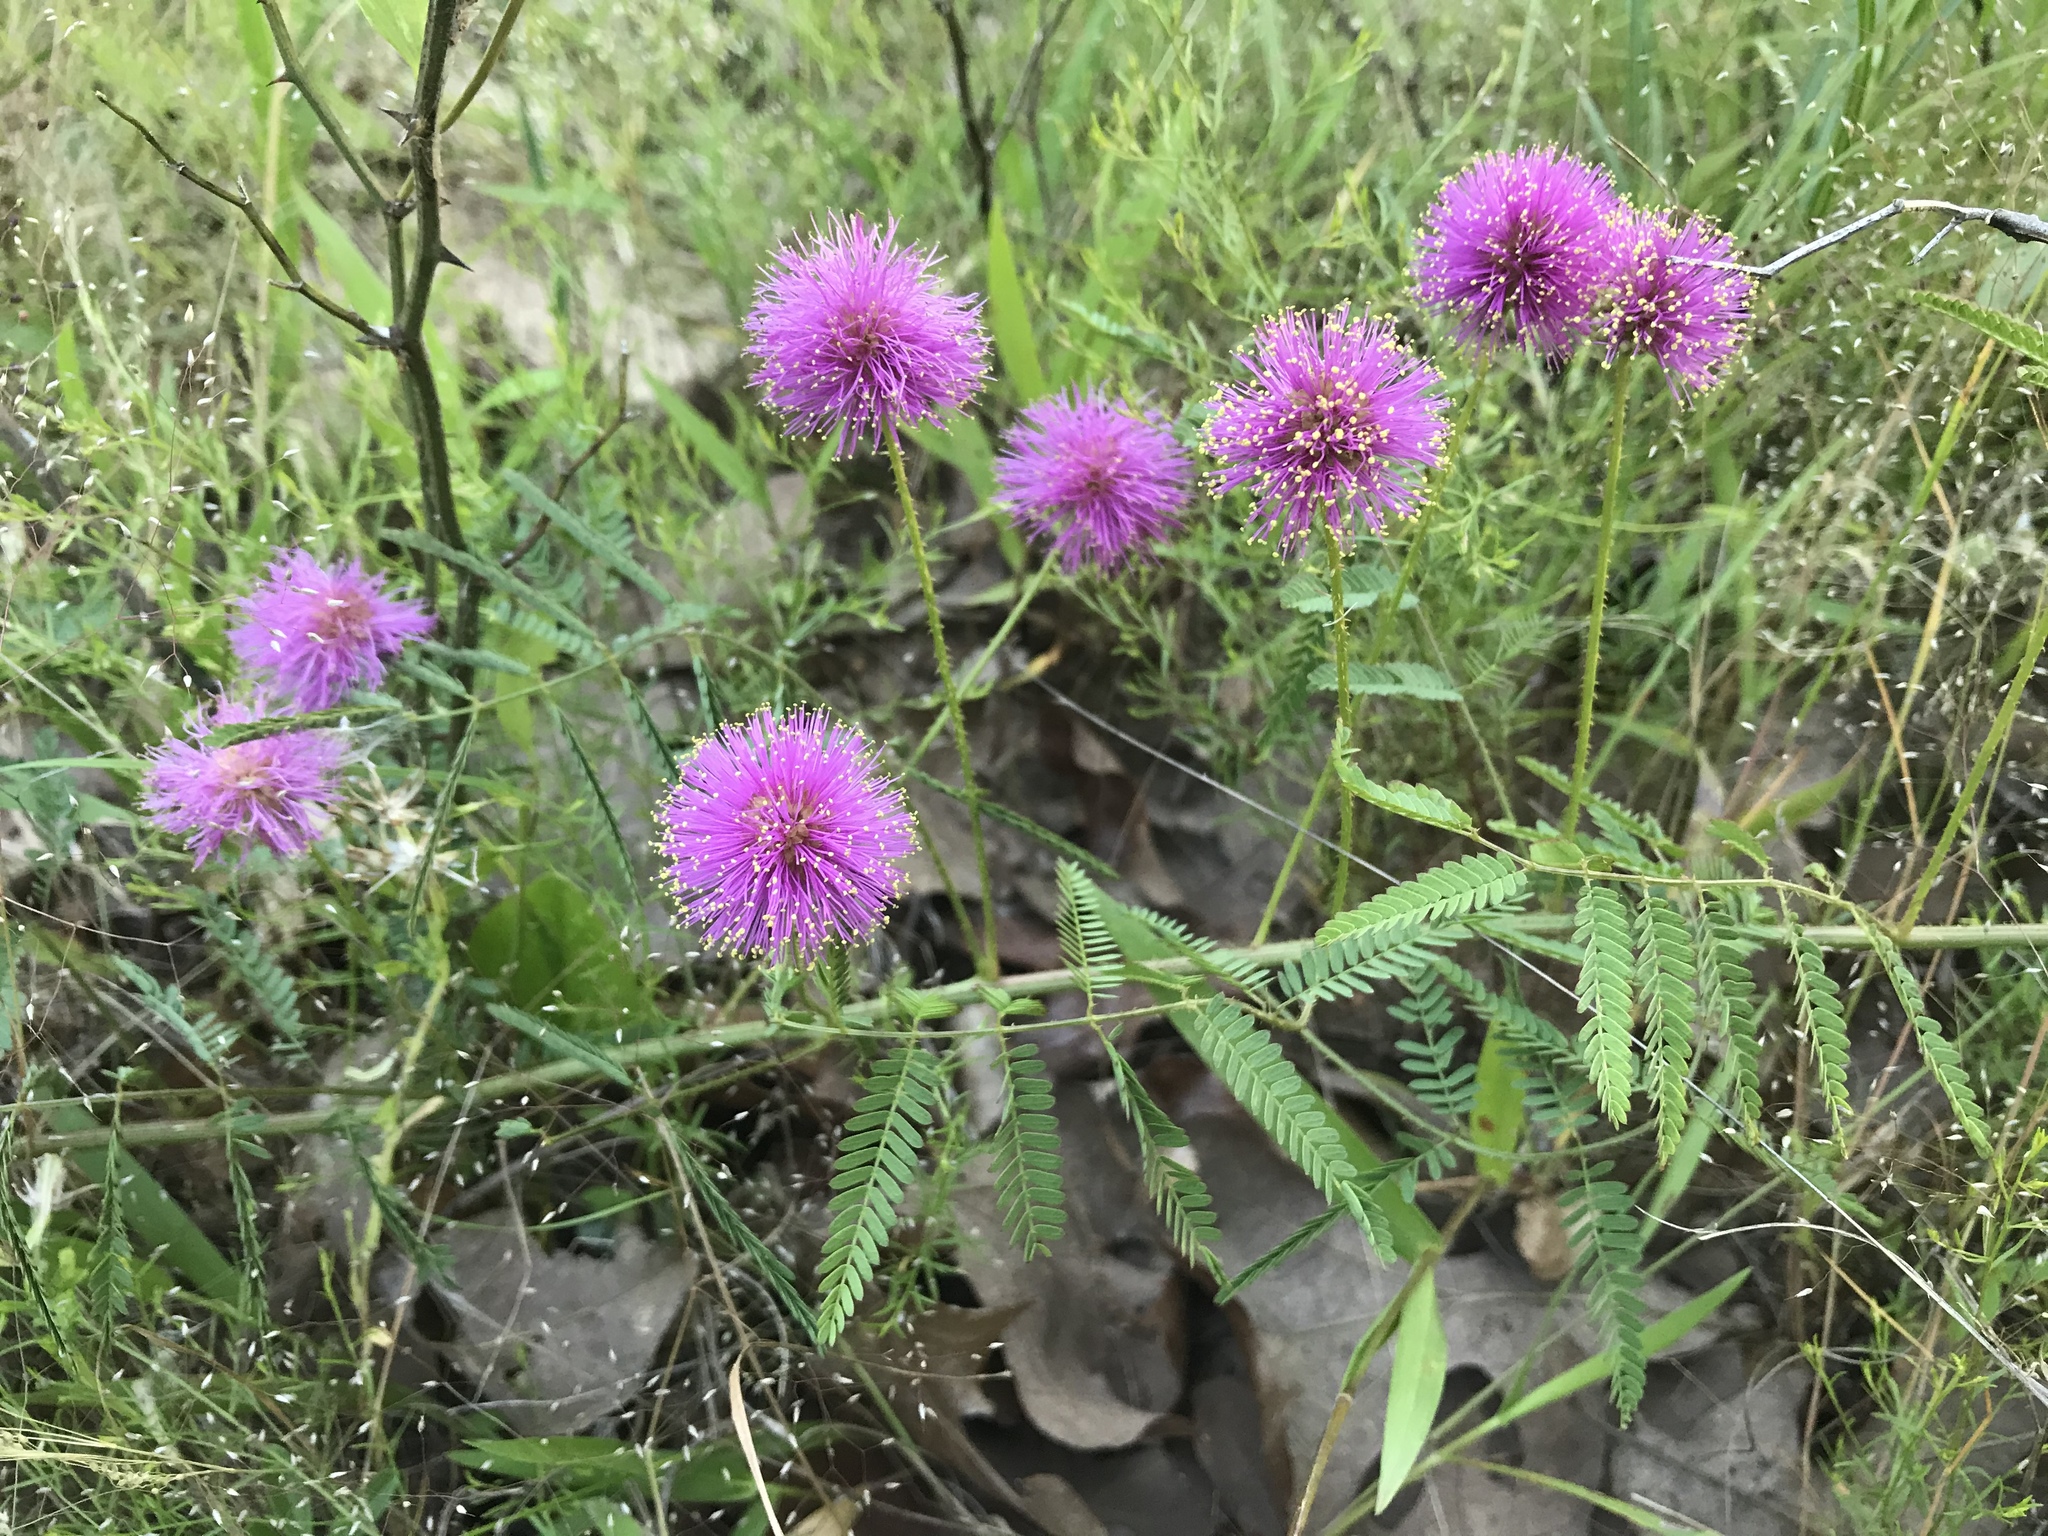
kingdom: Plantae
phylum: Tracheophyta
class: Magnoliopsida
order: Fabales
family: Fabaceae
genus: Mimosa
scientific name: Mimosa quadrivalvis
